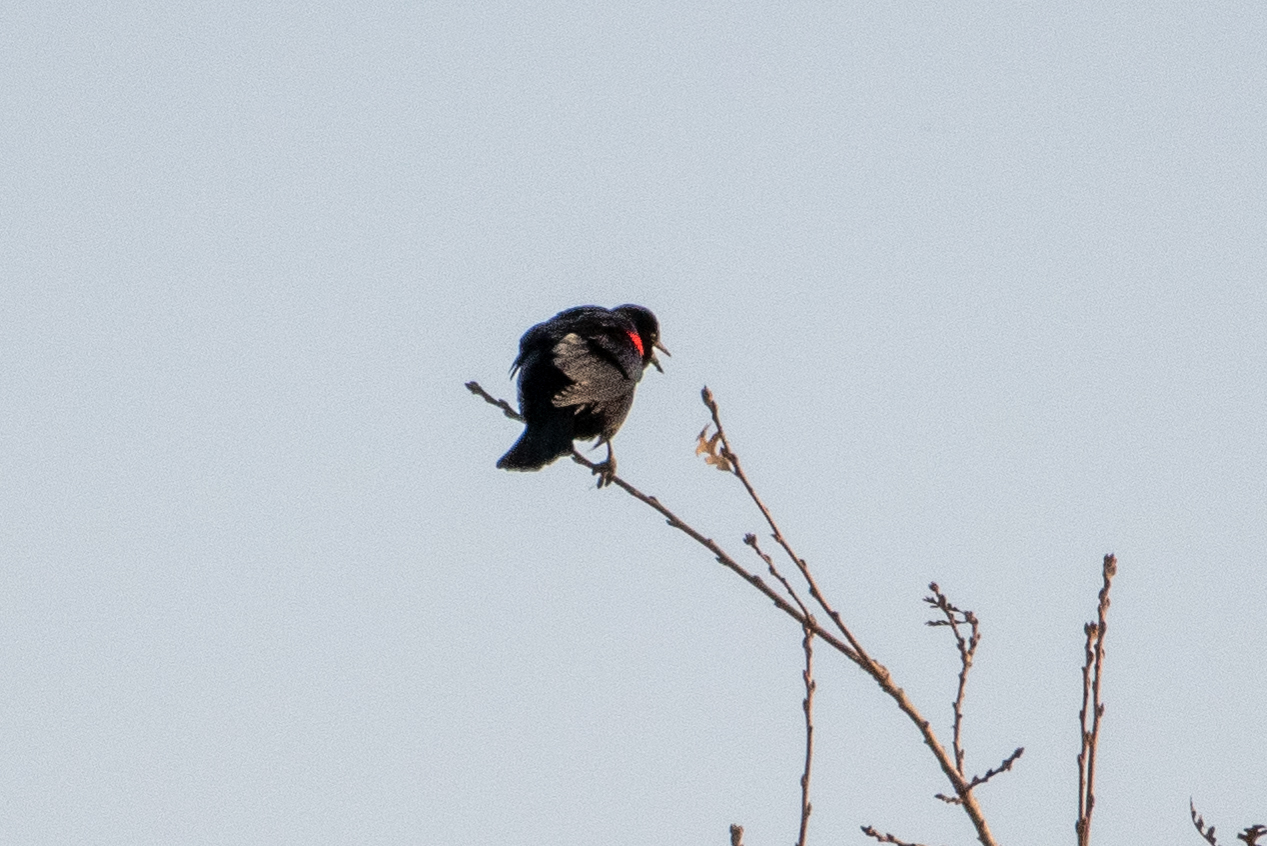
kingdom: Animalia
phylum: Chordata
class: Aves
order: Passeriformes
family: Icteridae
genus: Agelaius
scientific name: Agelaius phoeniceus
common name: Red-winged blackbird
